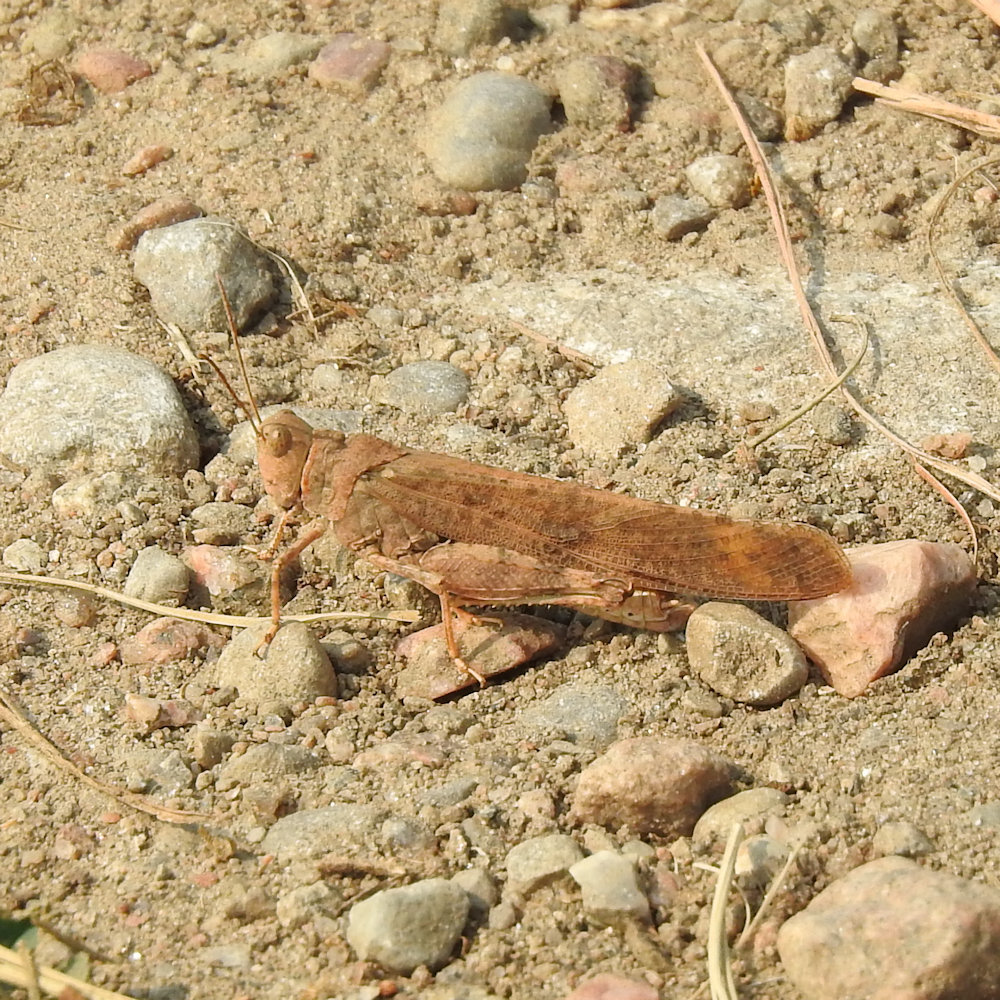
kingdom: Animalia
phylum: Arthropoda
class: Insecta
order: Orthoptera
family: Acrididae
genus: Dissosteira
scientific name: Dissosteira carolina
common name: Carolina grasshopper
